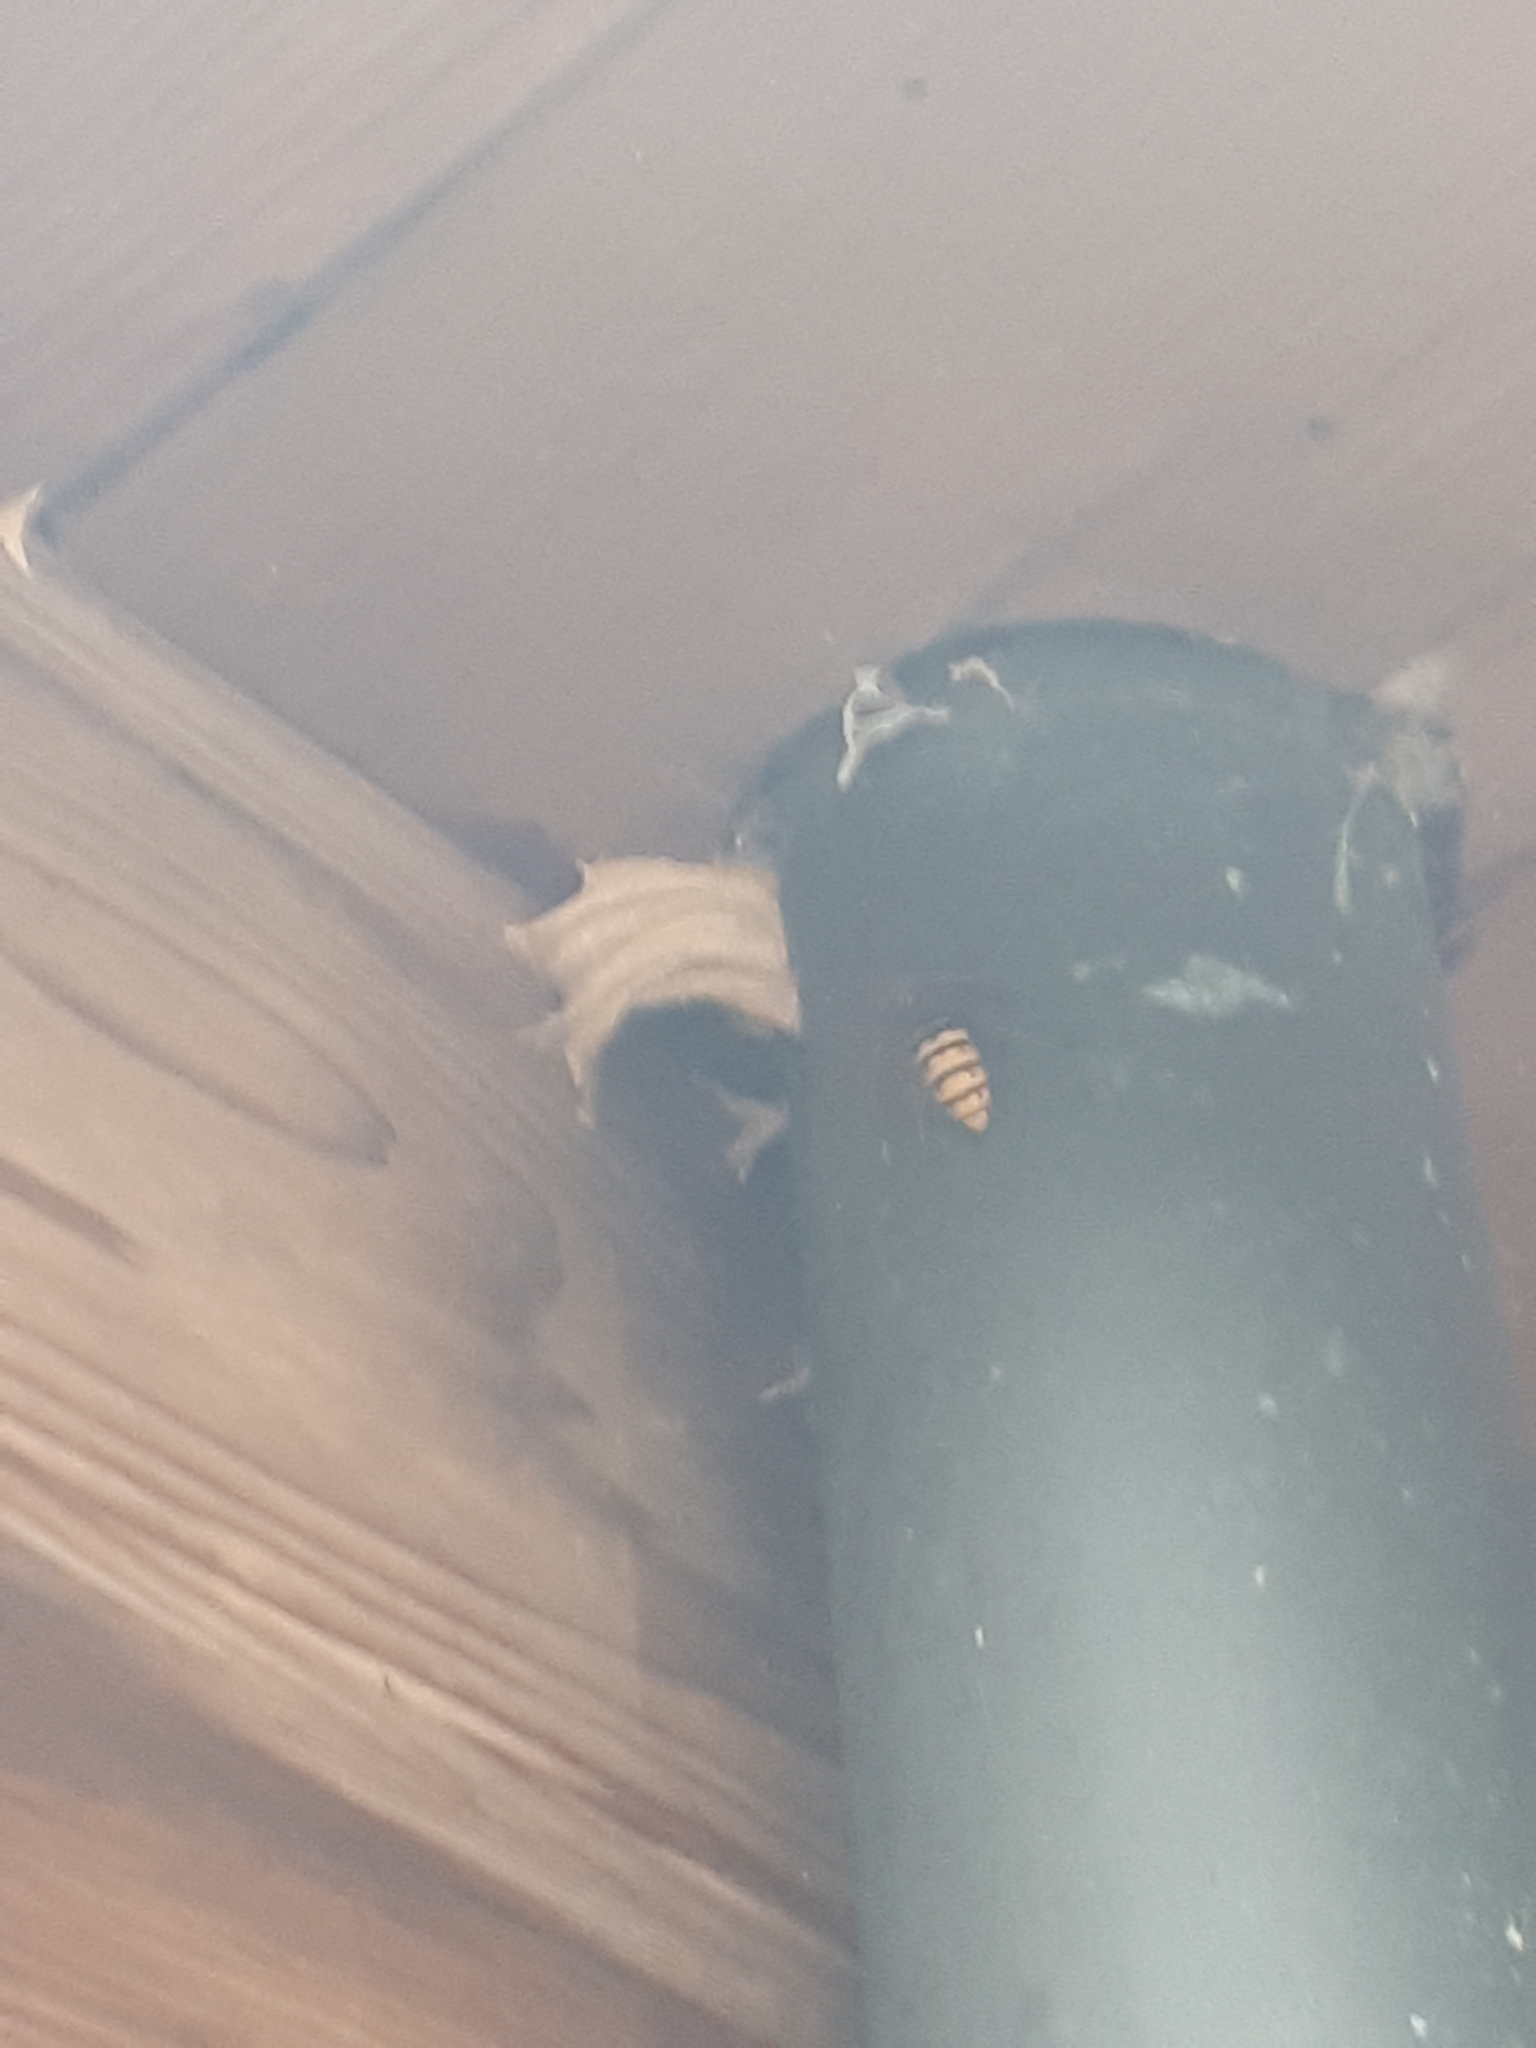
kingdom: Animalia
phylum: Arthropoda
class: Insecta
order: Hymenoptera
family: Vespidae
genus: Vespa
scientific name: Vespa crabro
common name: Hornet
